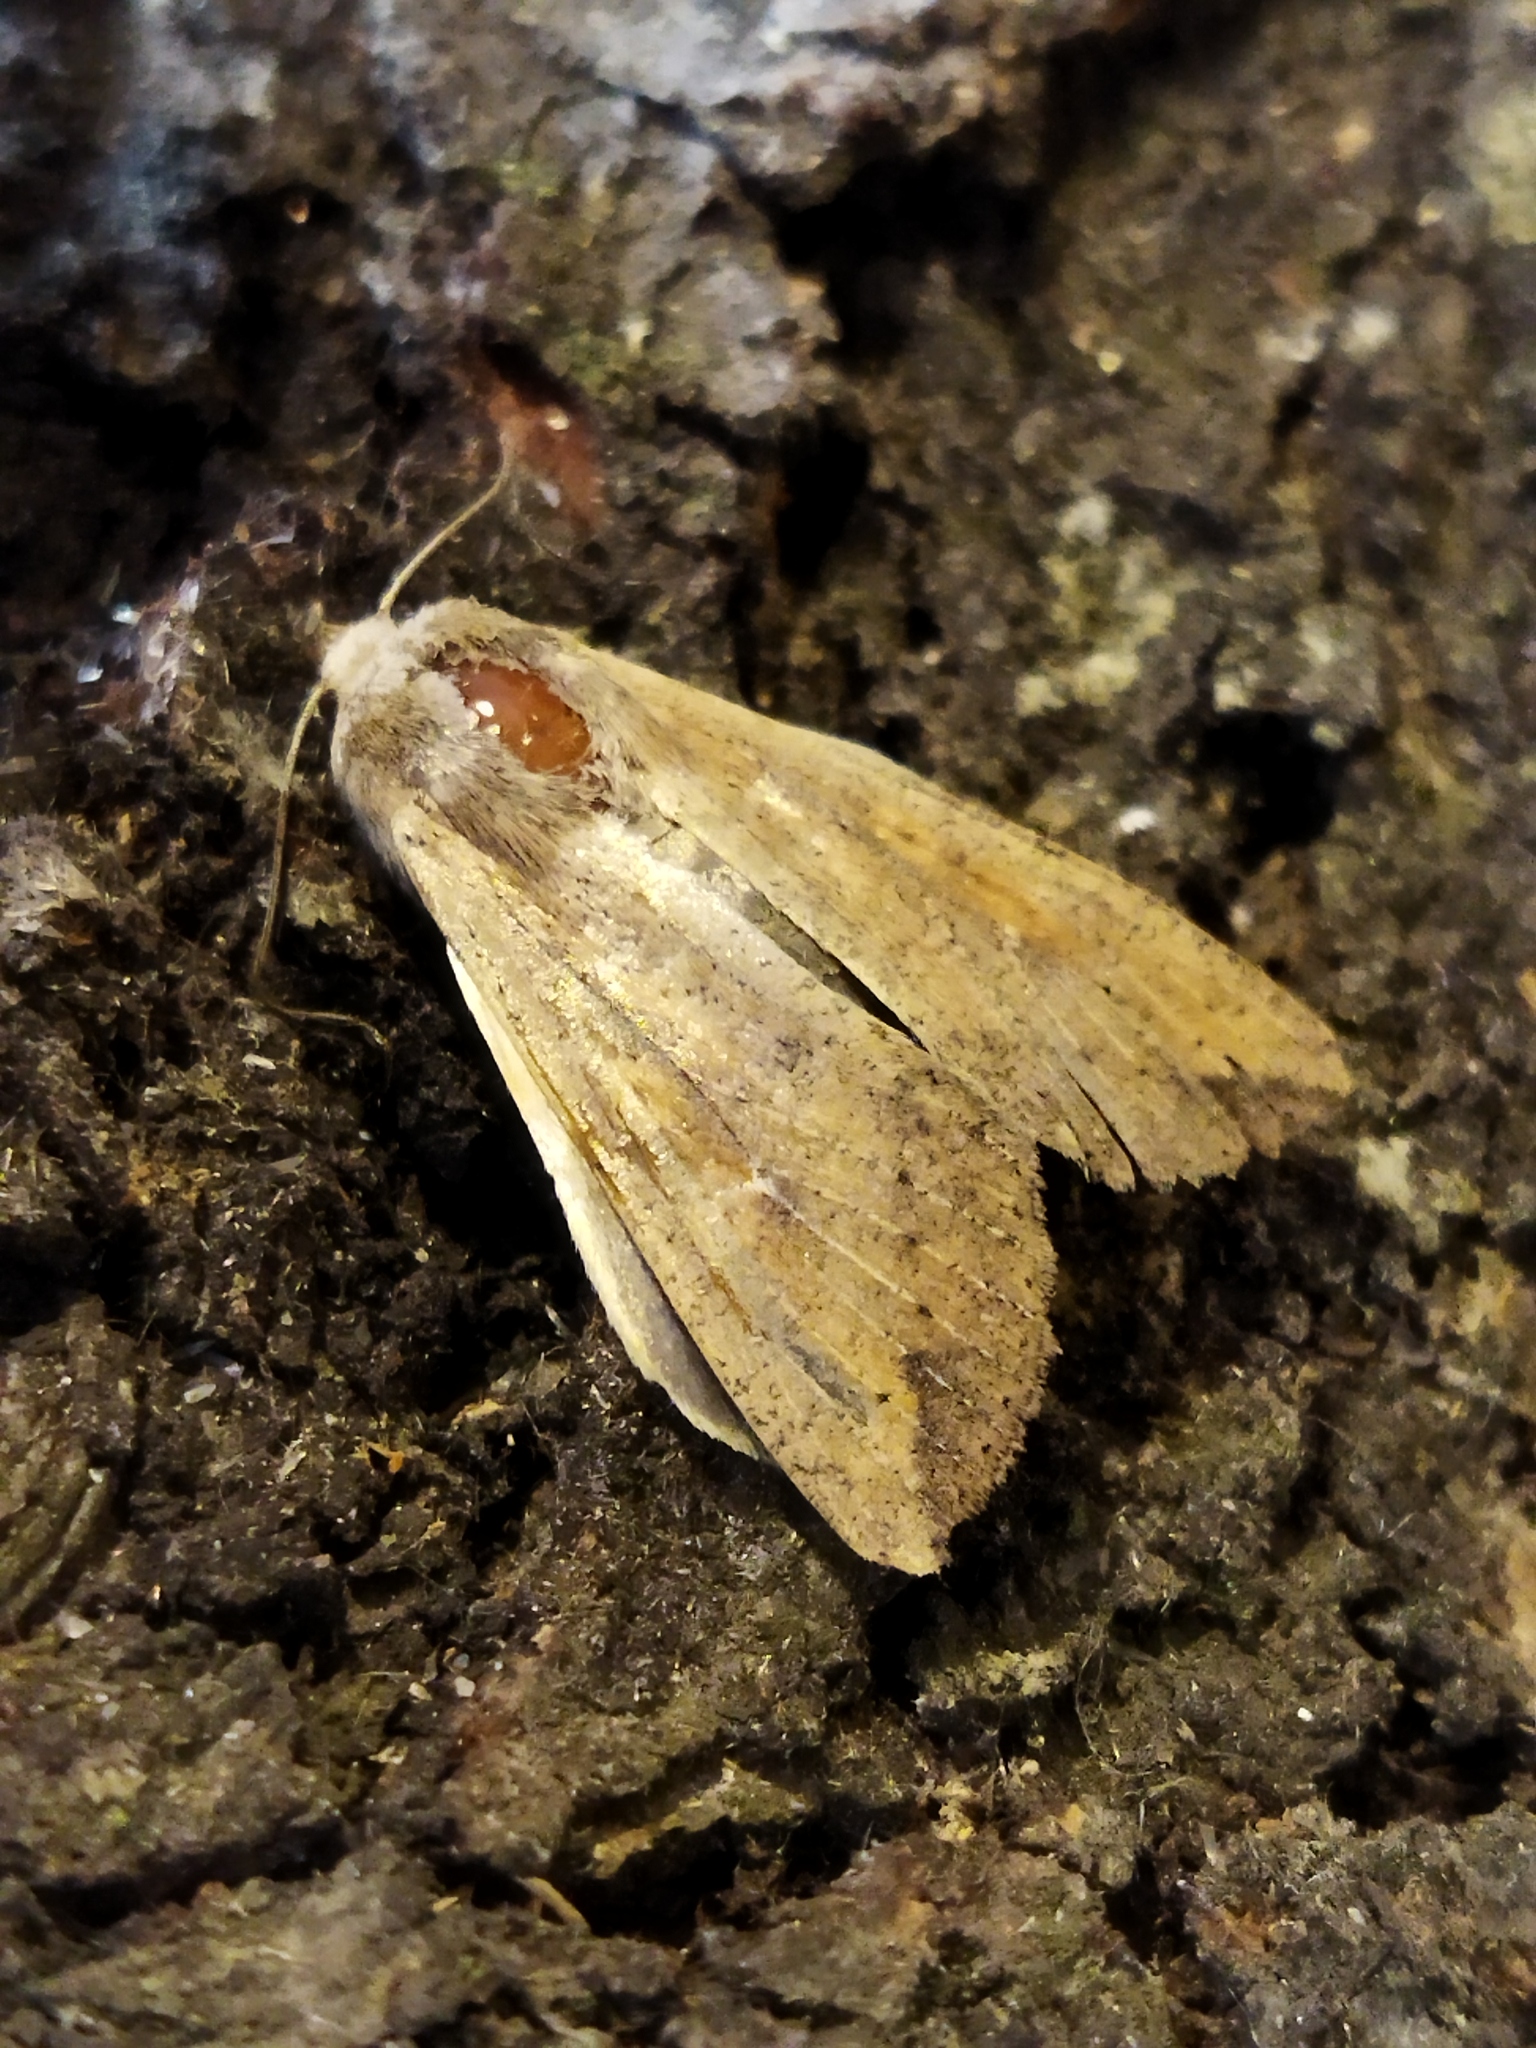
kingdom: Animalia
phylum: Arthropoda
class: Insecta
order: Lepidoptera
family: Noctuidae
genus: Mythimna
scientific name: Mythimna unipuncta
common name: White-speck
